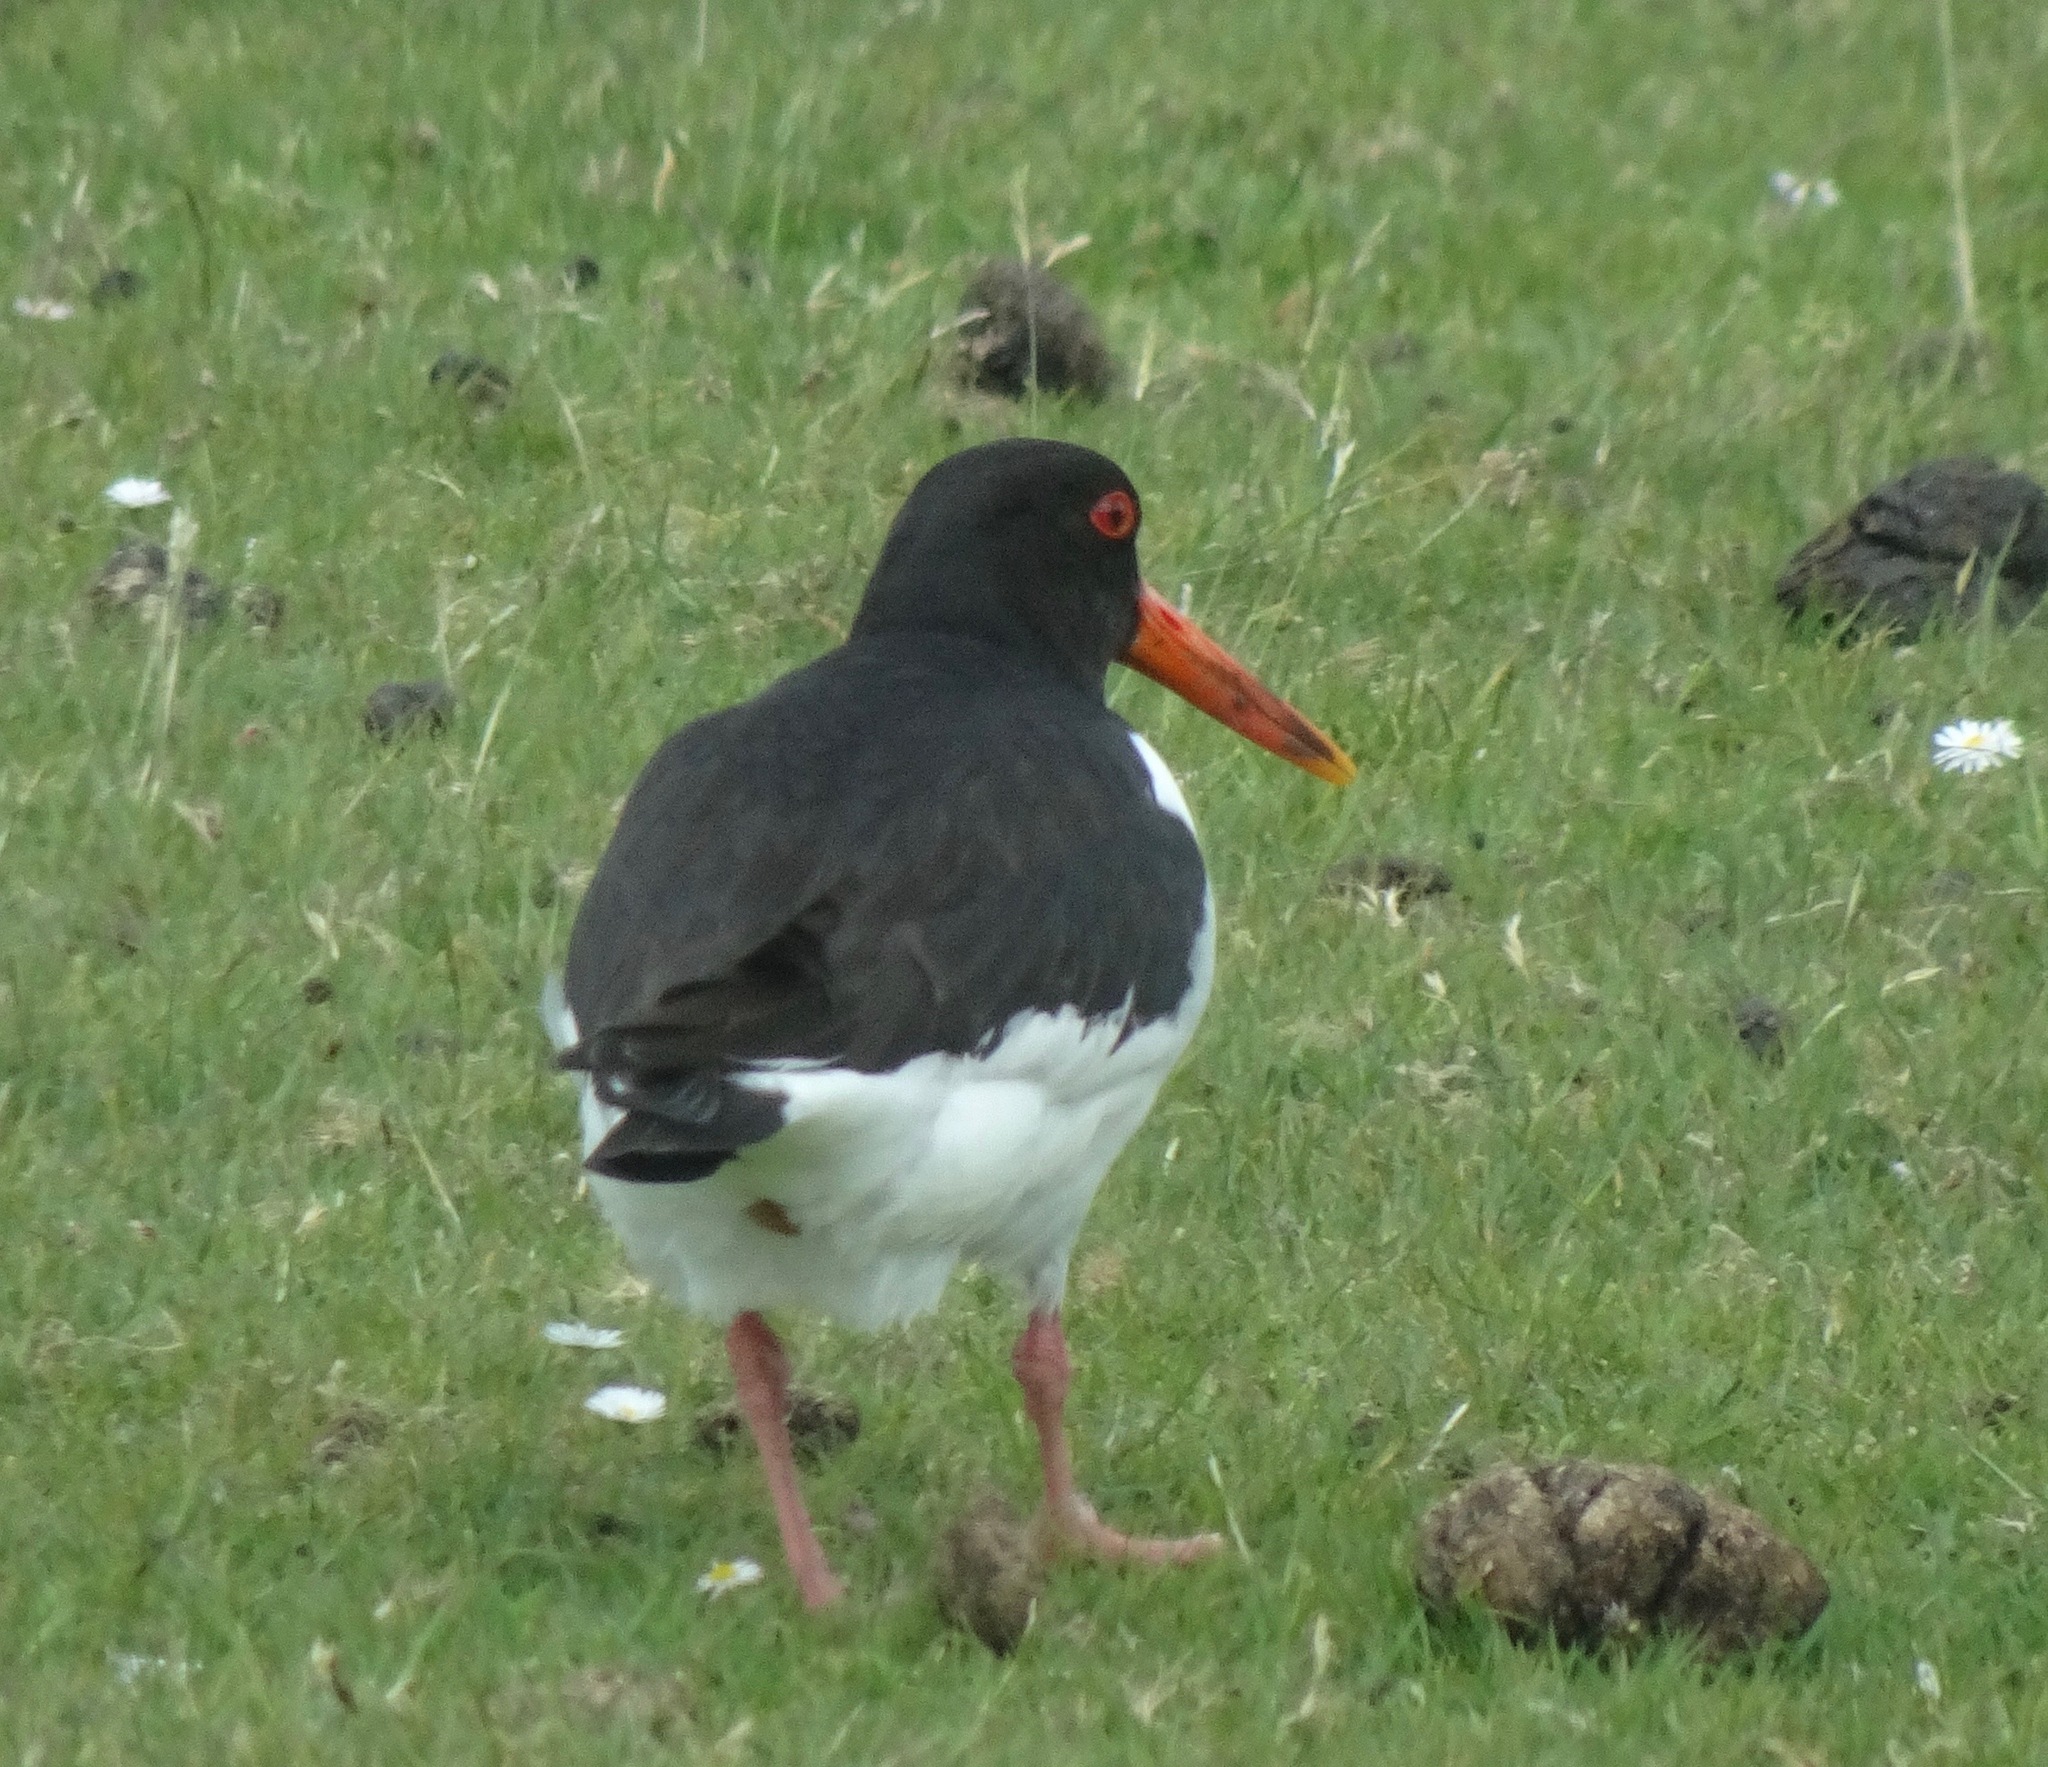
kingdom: Animalia
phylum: Chordata
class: Aves
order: Charadriiformes
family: Haematopodidae
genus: Haematopus
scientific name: Haematopus ostralegus
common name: Eurasian oystercatcher
